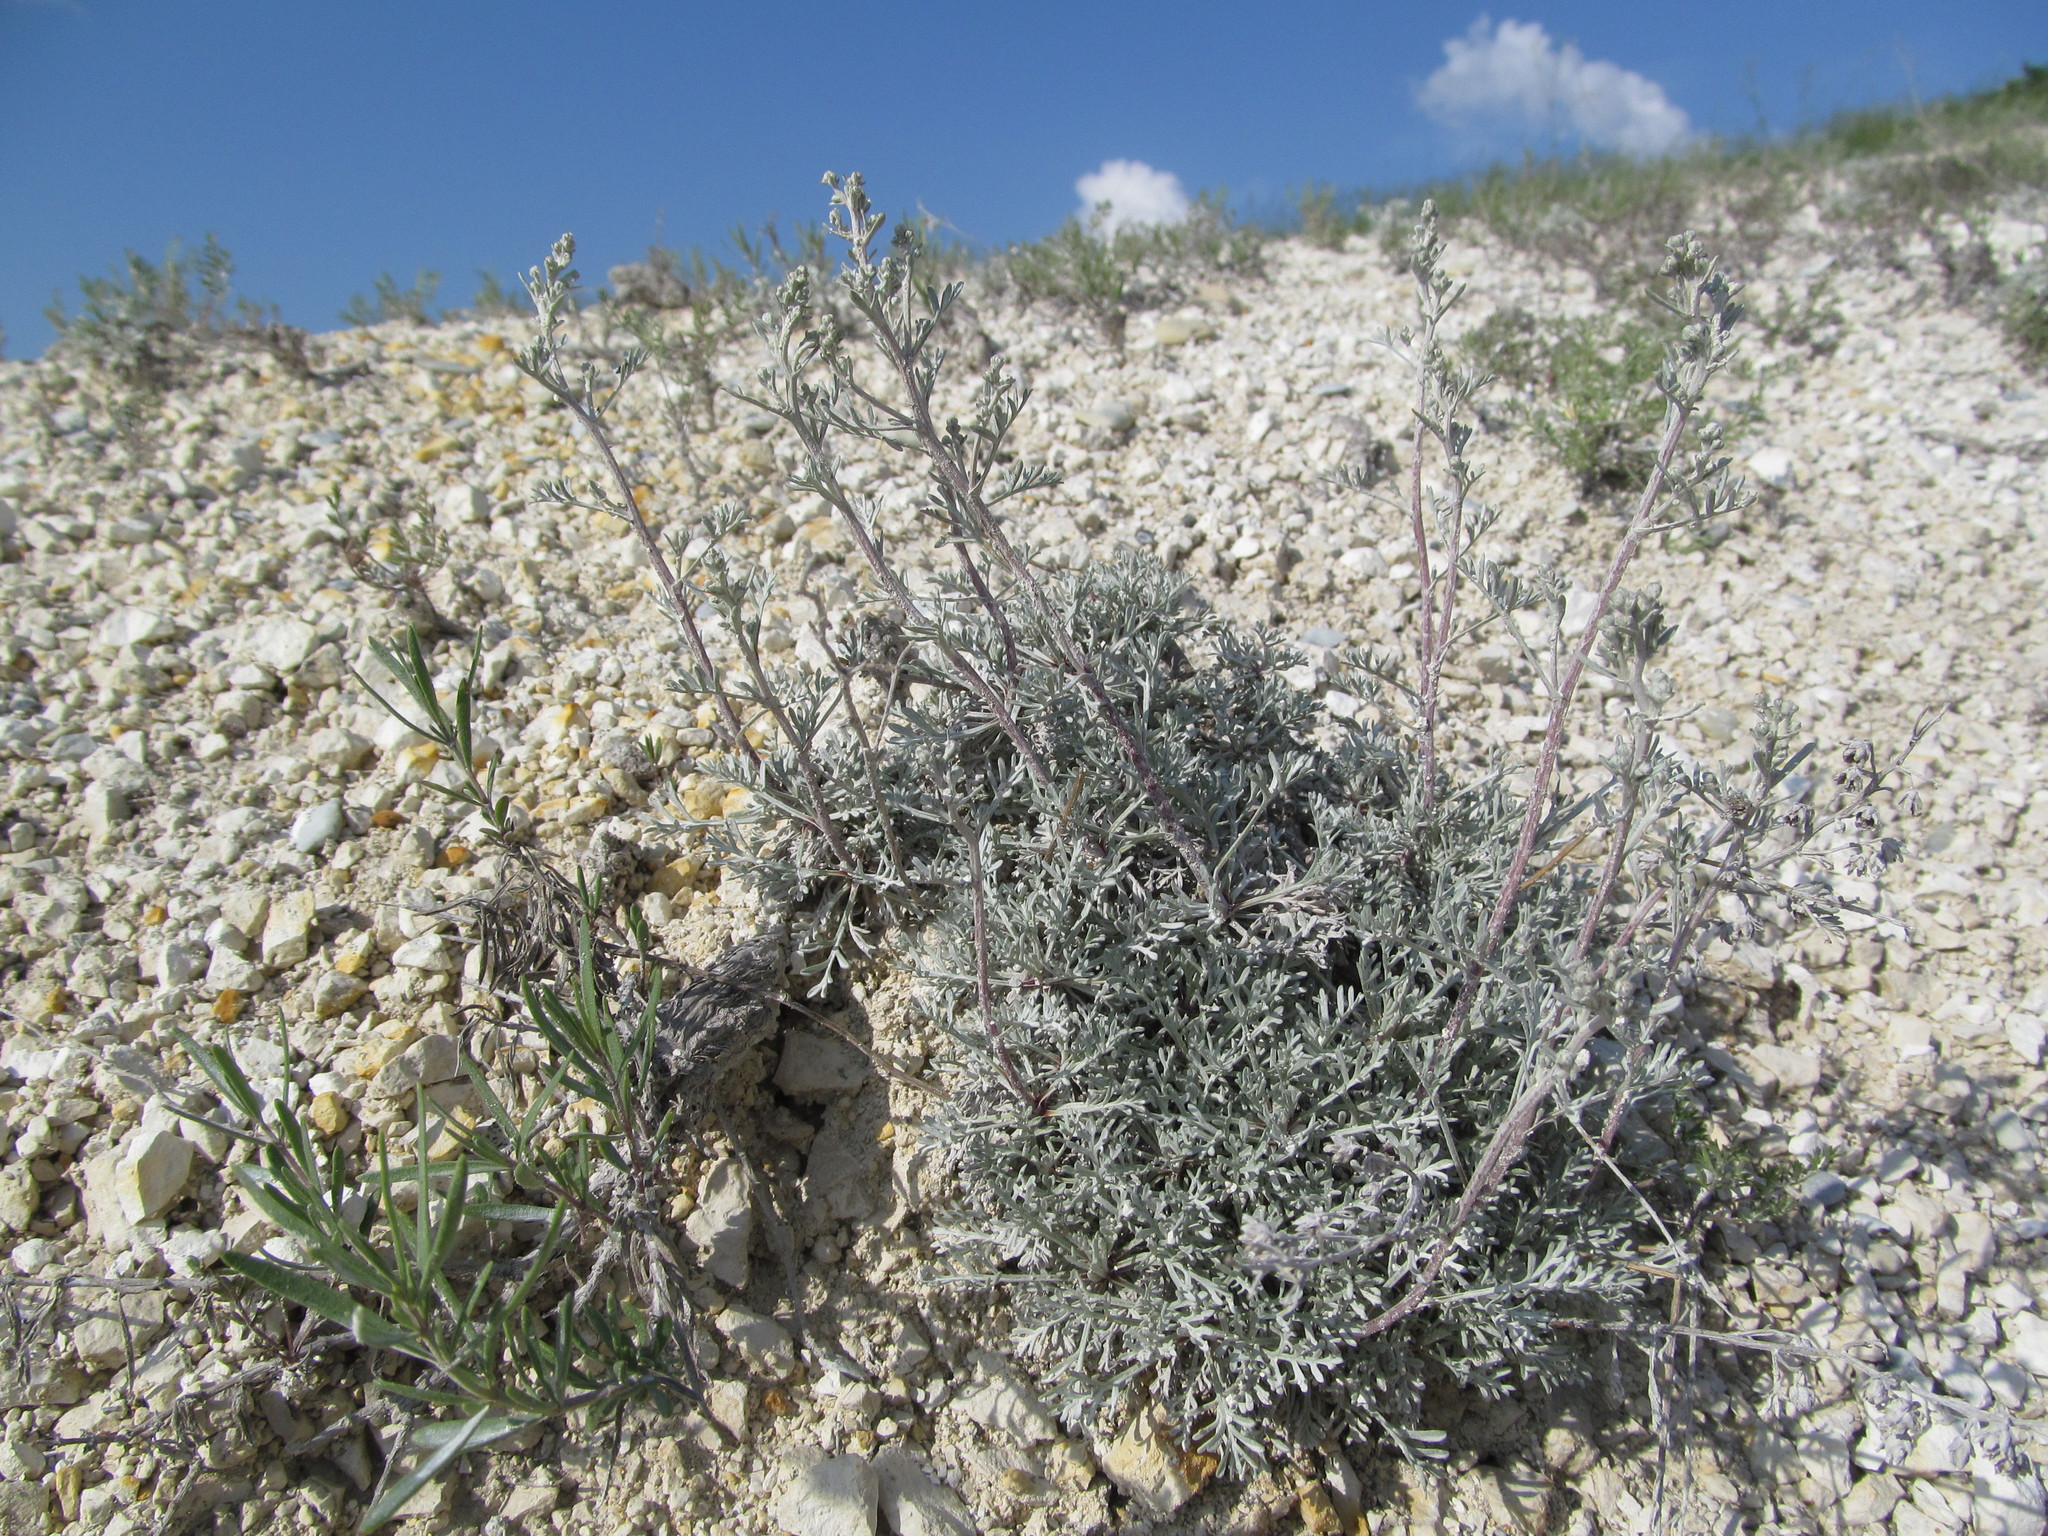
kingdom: Plantae
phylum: Tracheophyta
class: Magnoliopsida
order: Asterales
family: Asteraceae
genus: Artemisia
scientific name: Artemisia hololeuca
